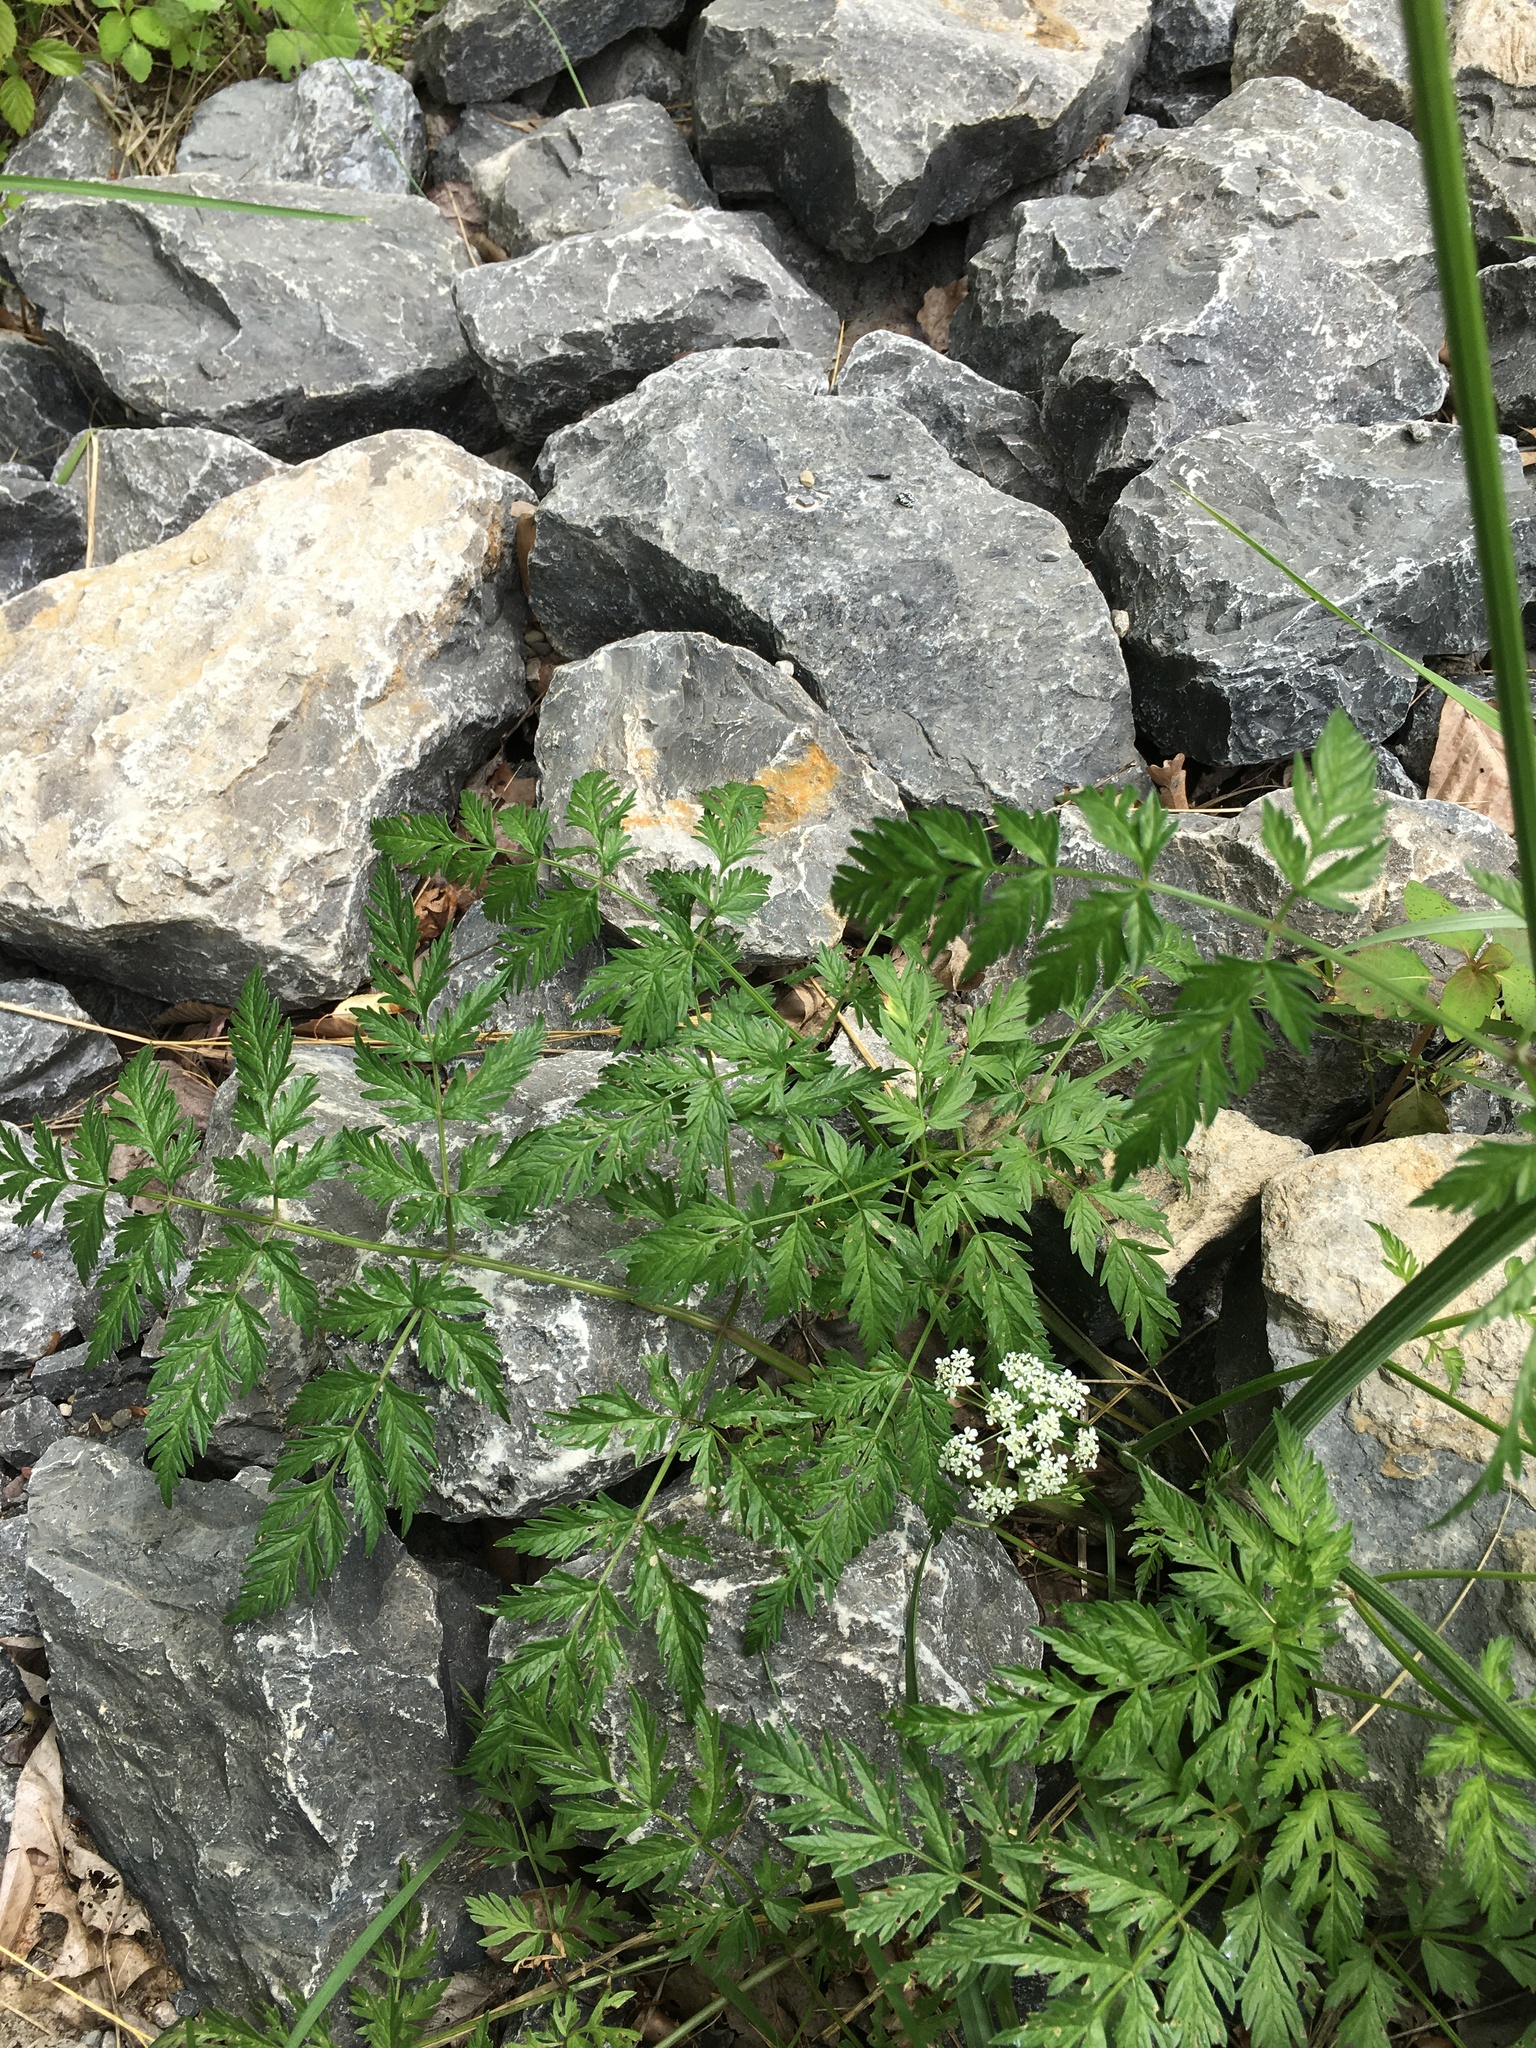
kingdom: Plantae
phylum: Tracheophyta
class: Magnoliopsida
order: Apiales
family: Apiaceae
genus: Anthriscus
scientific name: Anthriscus sylvestris
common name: Cow parsley
